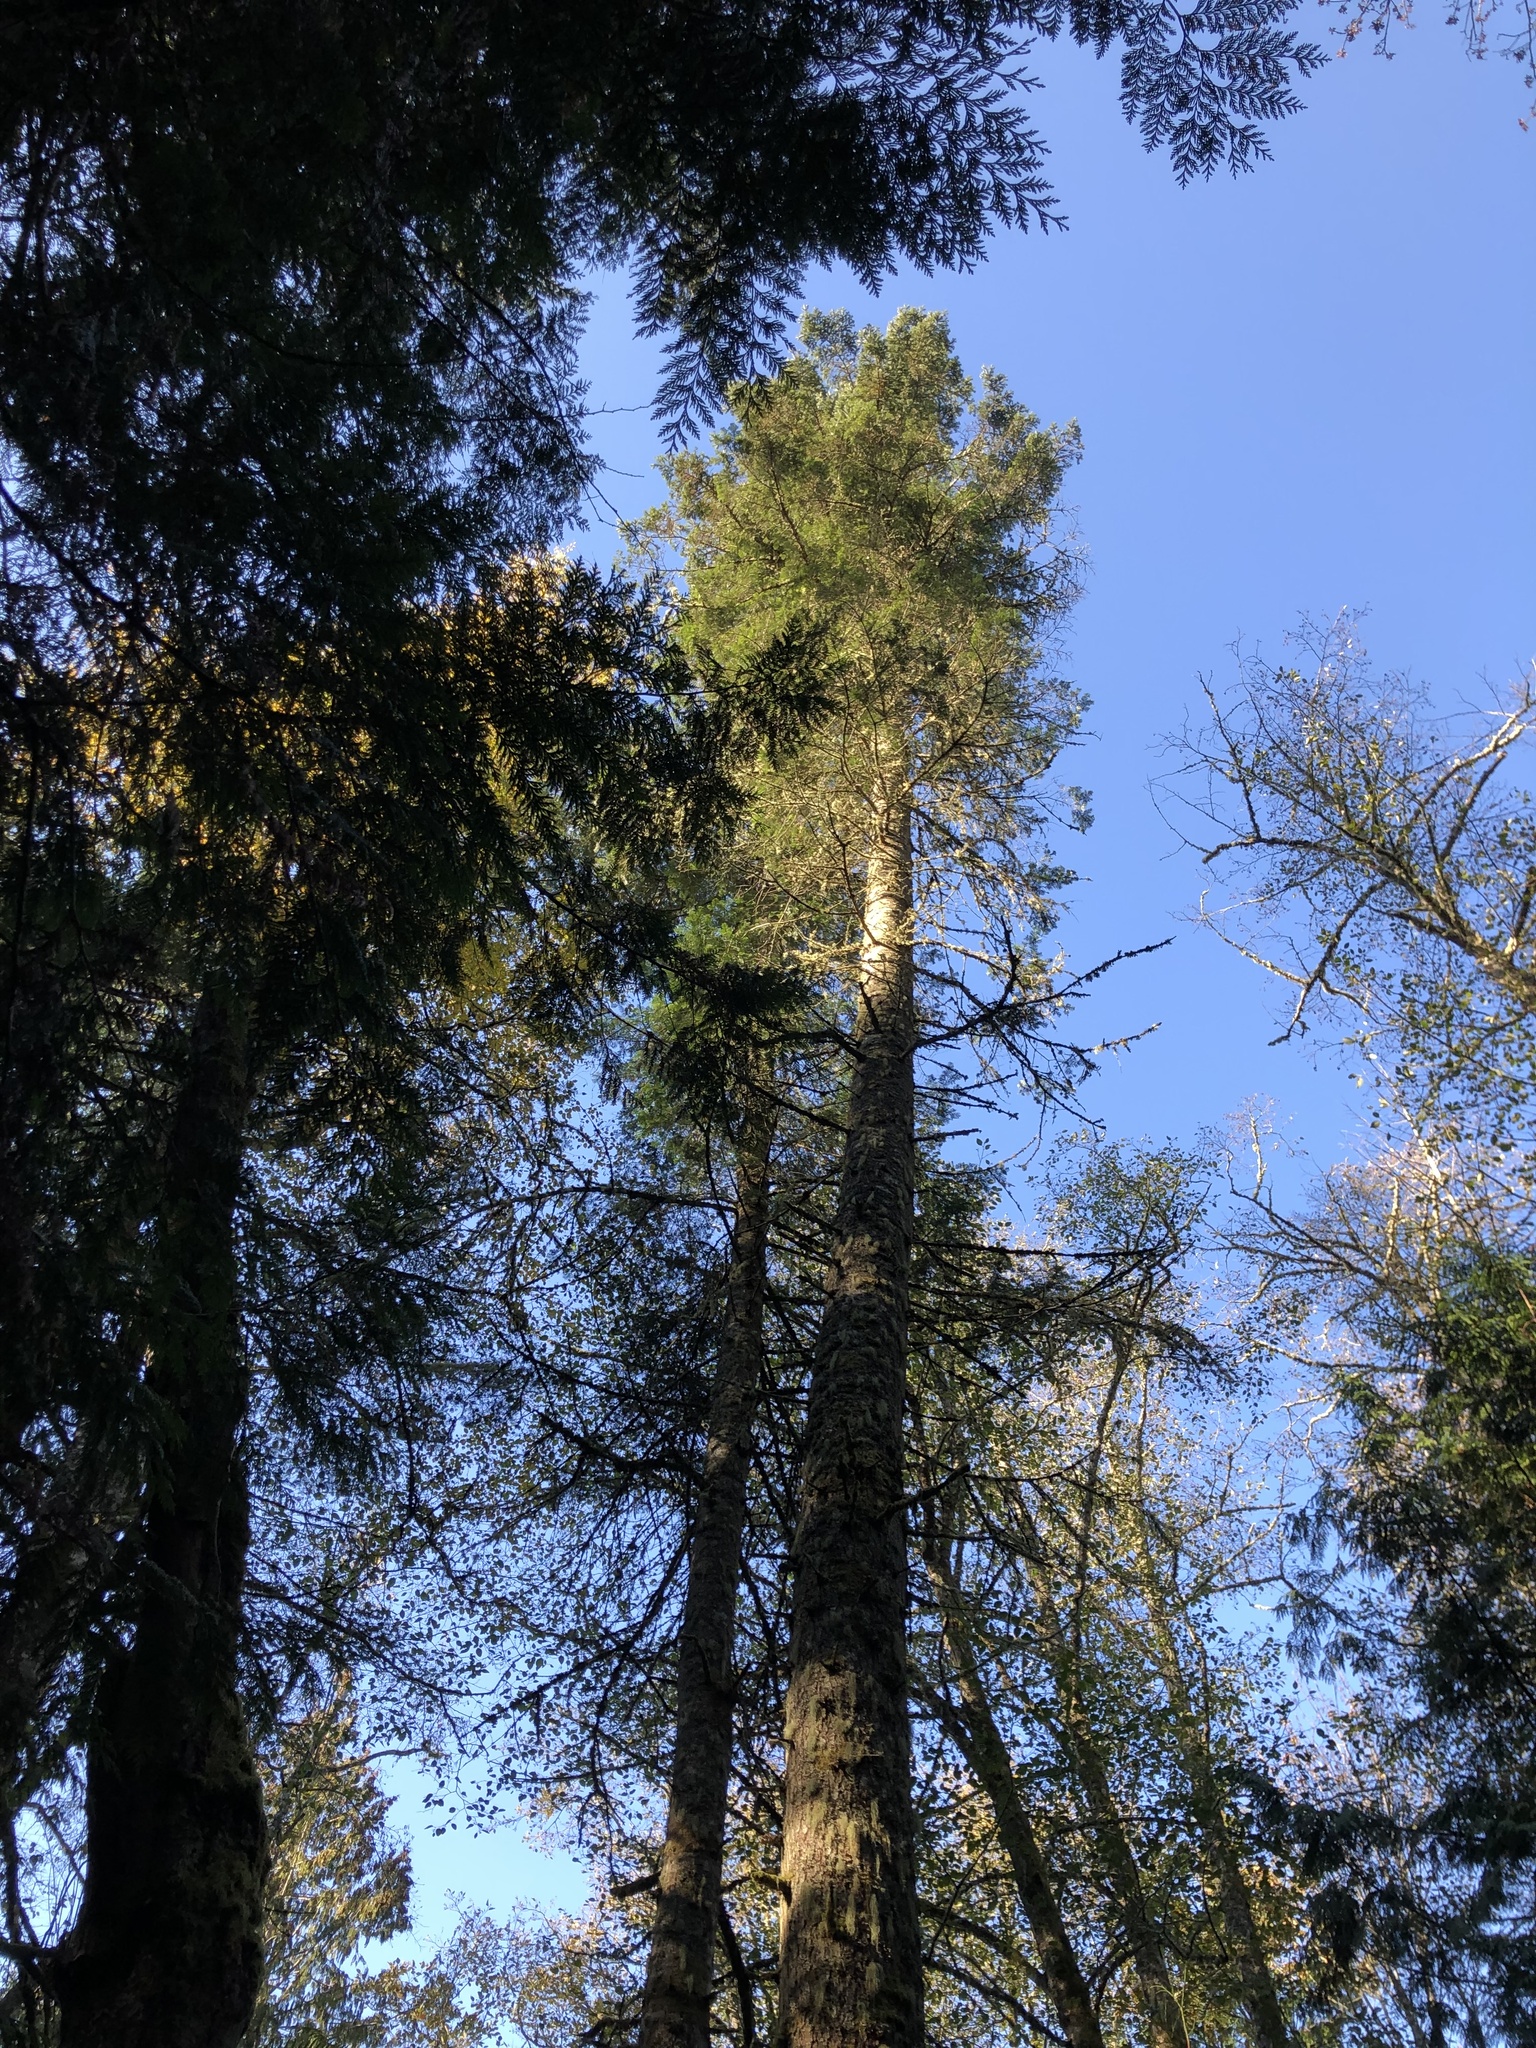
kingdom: Plantae
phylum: Tracheophyta
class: Pinopsida
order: Pinales
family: Pinaceae
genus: Abies
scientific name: Abies grandis
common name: Giant fir
